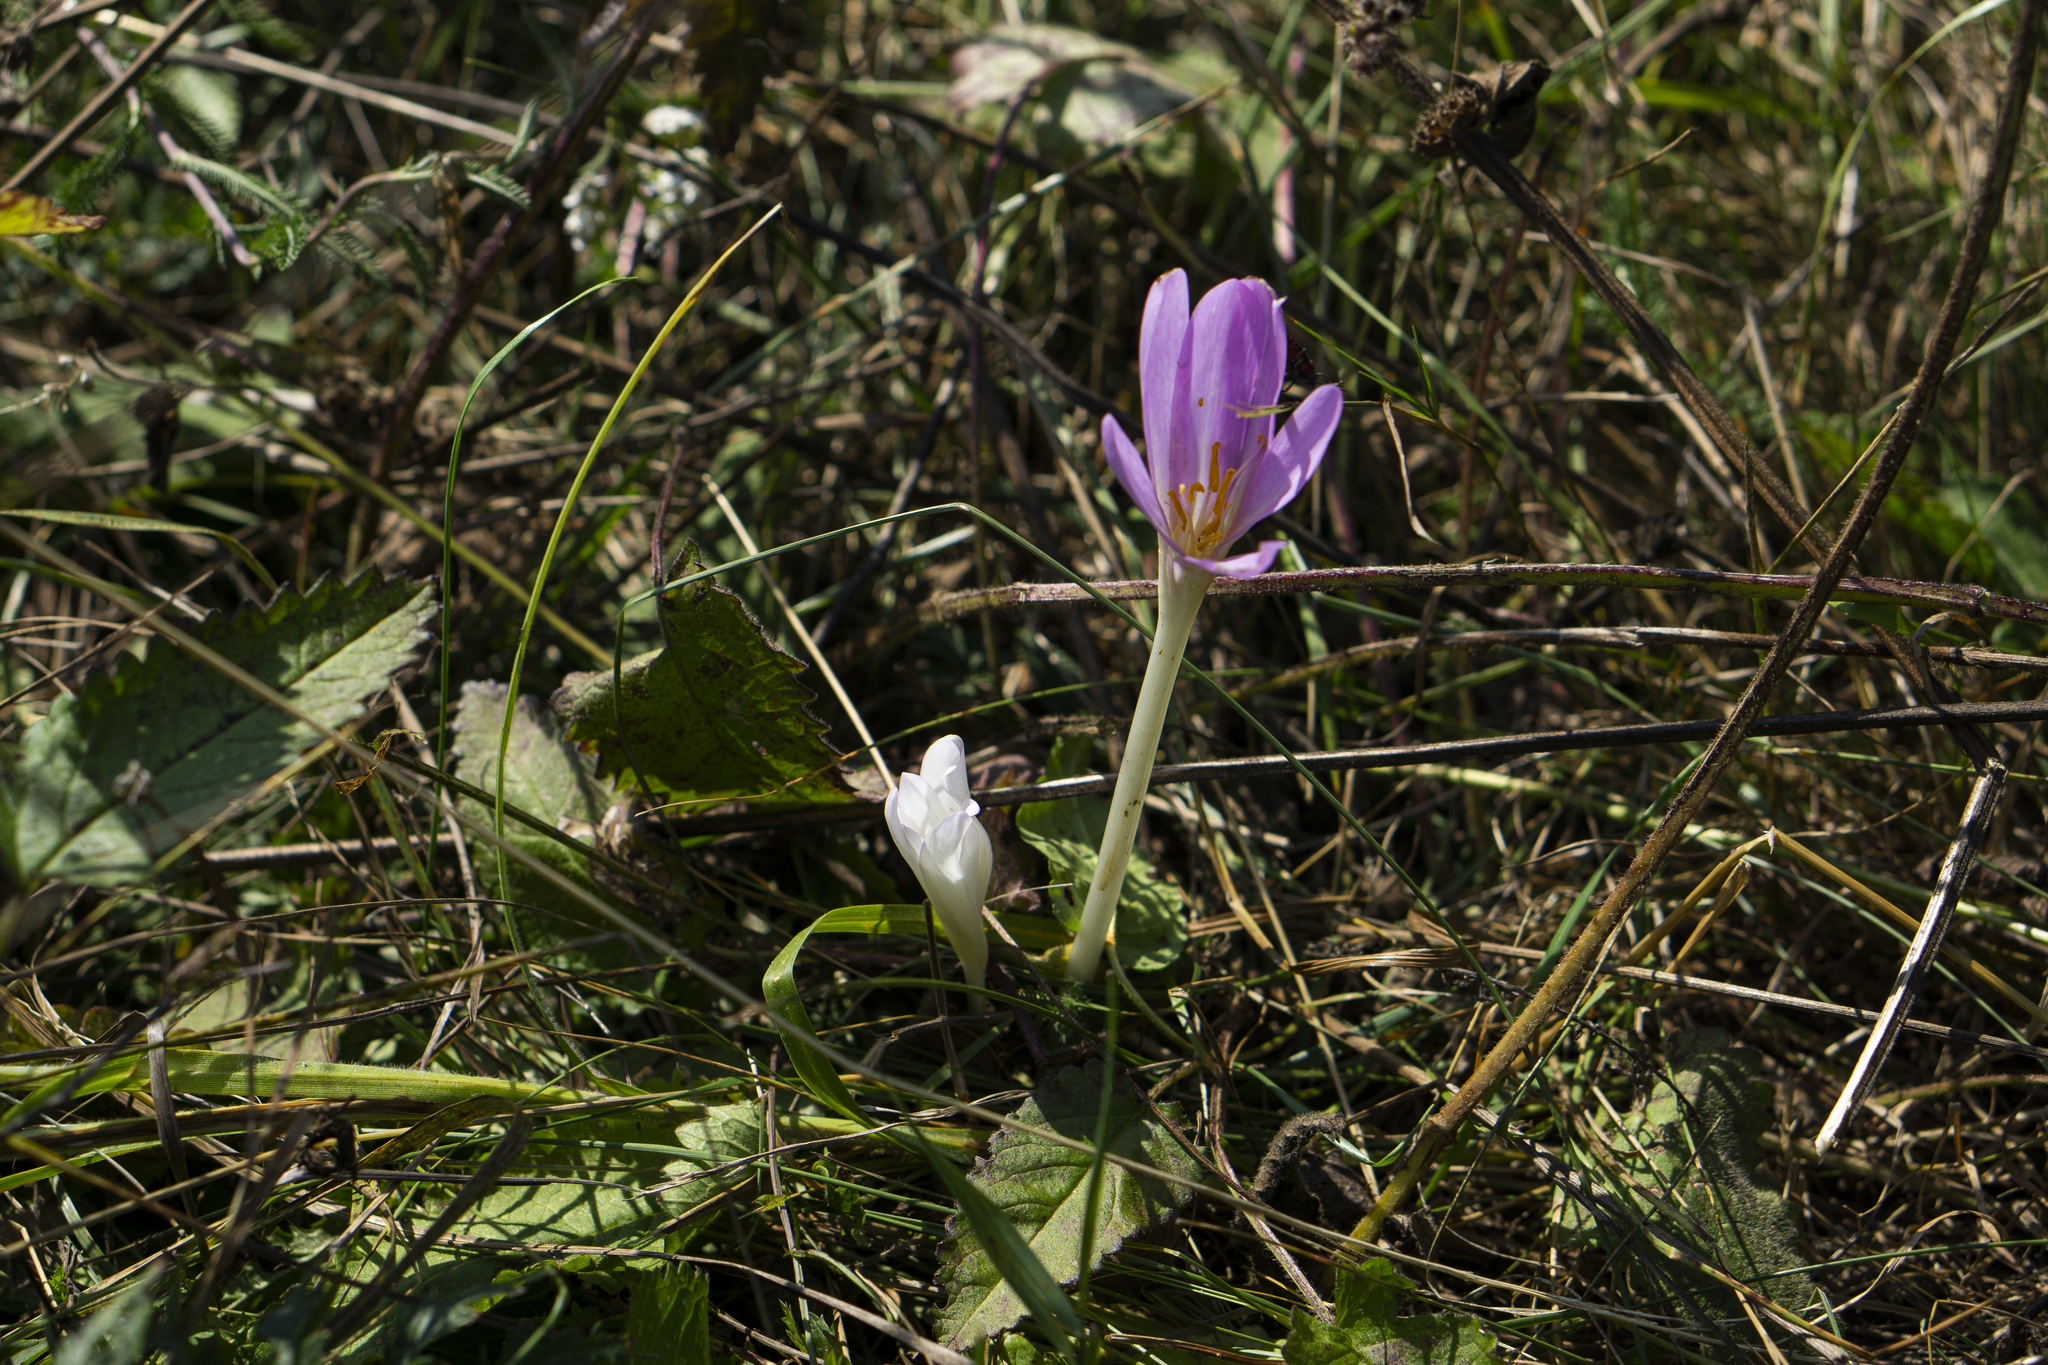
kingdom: Plantae
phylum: Tracheophyta
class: Liliopsida
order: Liliales
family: Colchicaceae
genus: Colchicum
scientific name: Colchicum autumnale
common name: Autumn crocus
